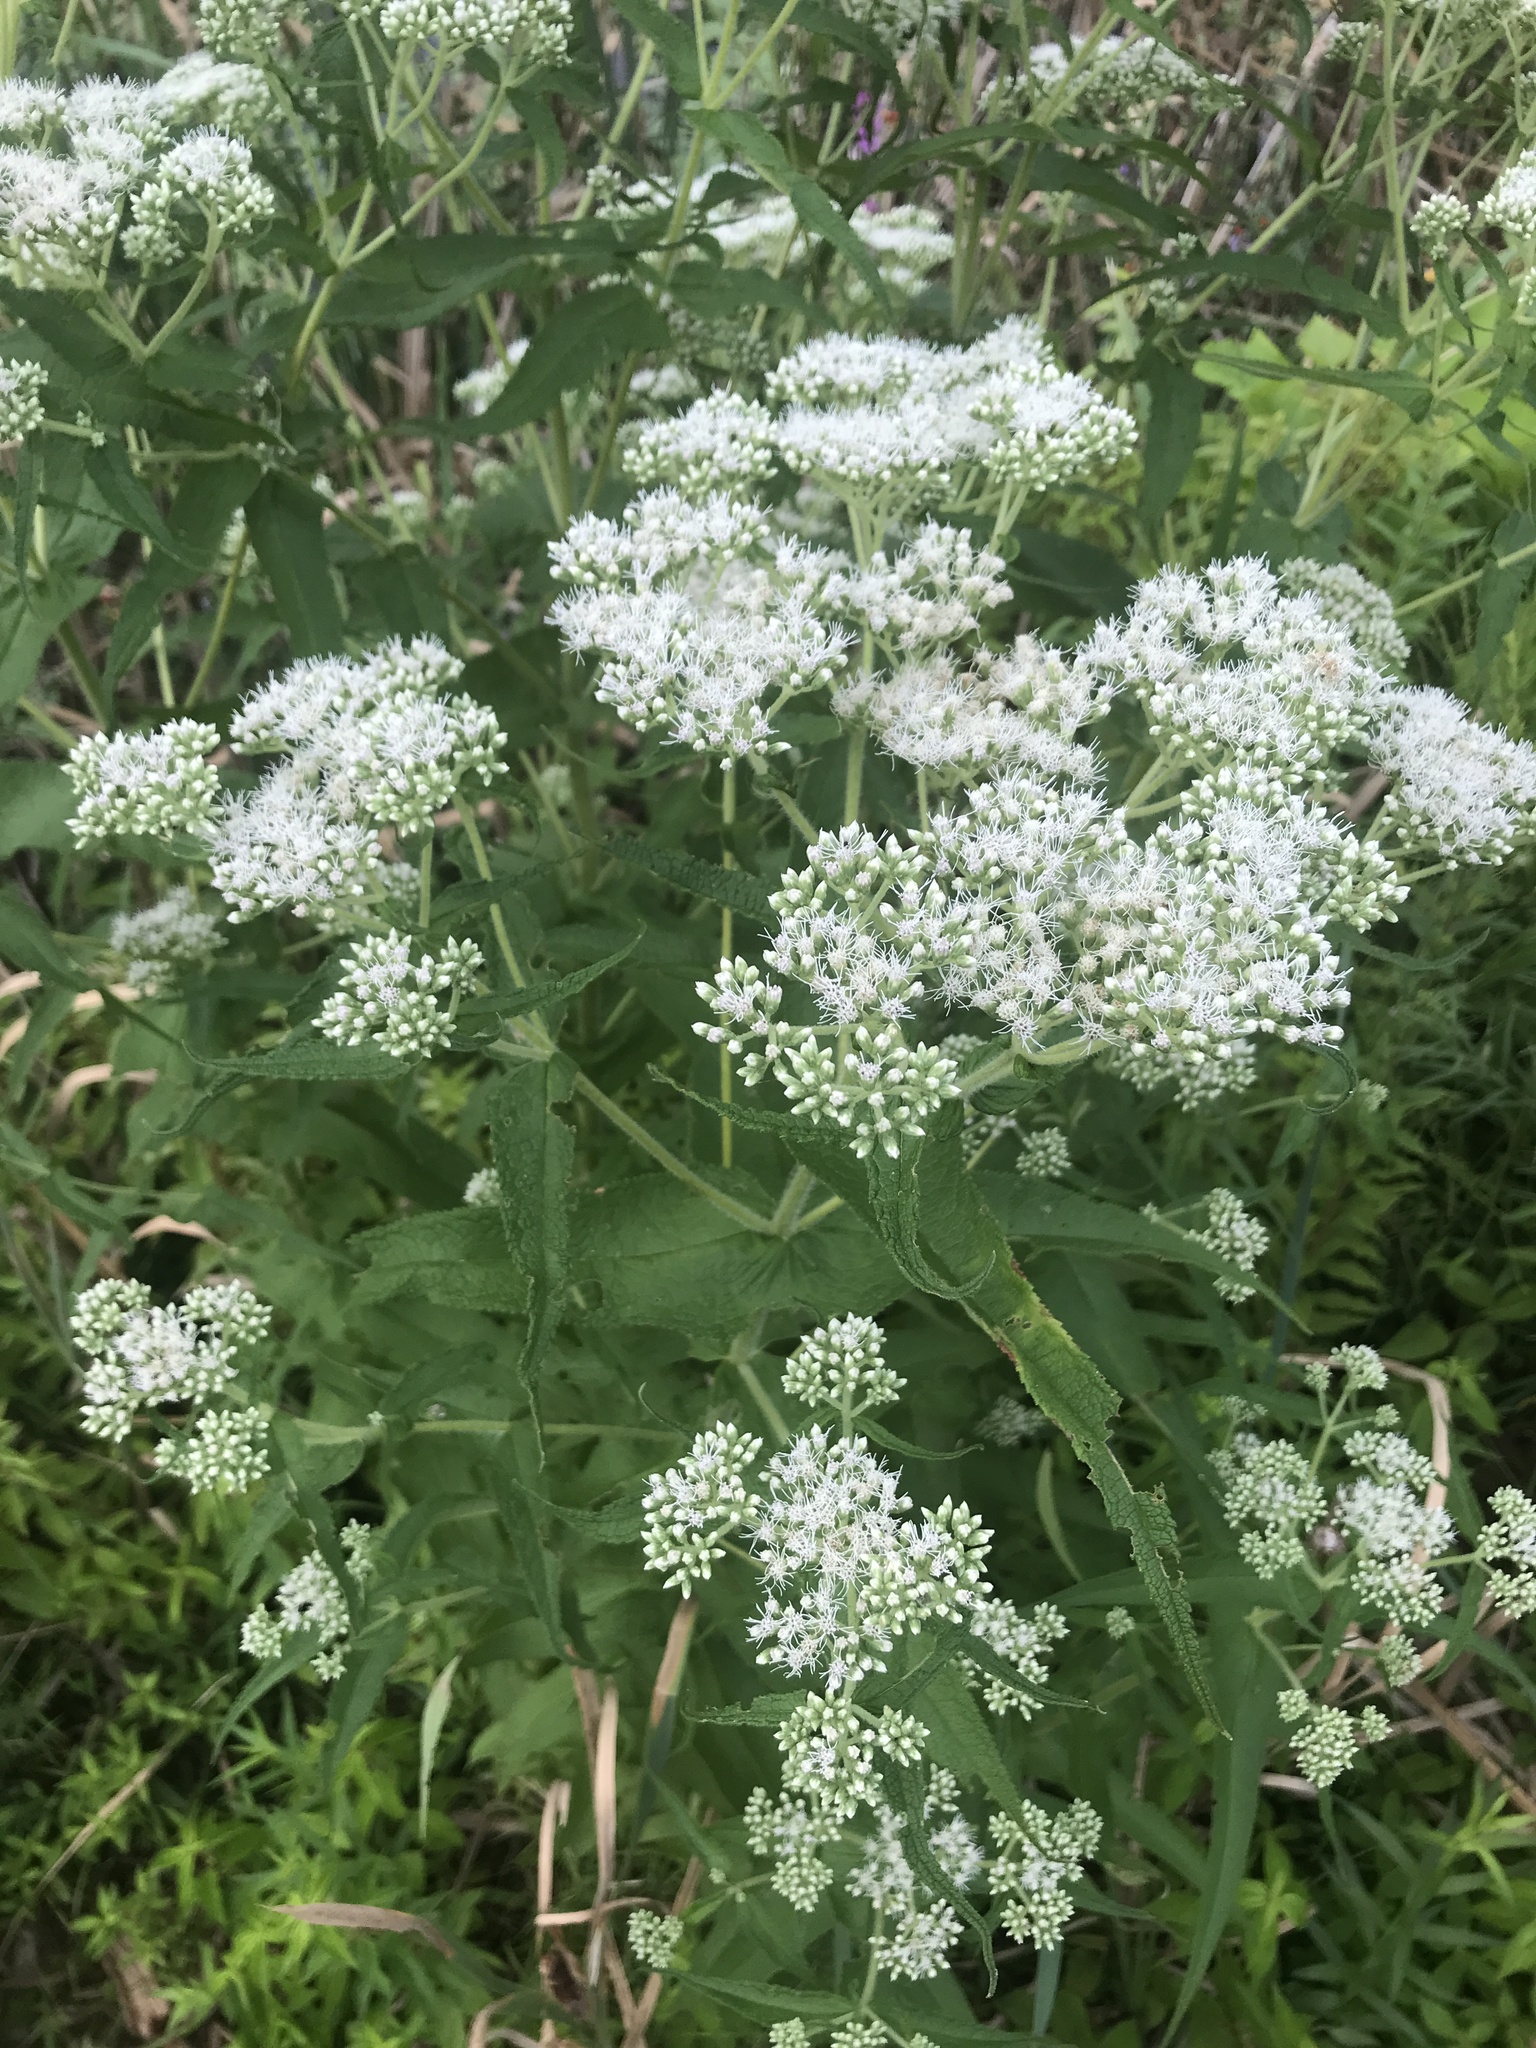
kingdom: Plantae
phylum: Tracheophyta
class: Magnoliopsida
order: Asterales
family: Asteraceae
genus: Eupatorium
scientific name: Eupatorium perfoliatum
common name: Boneset
